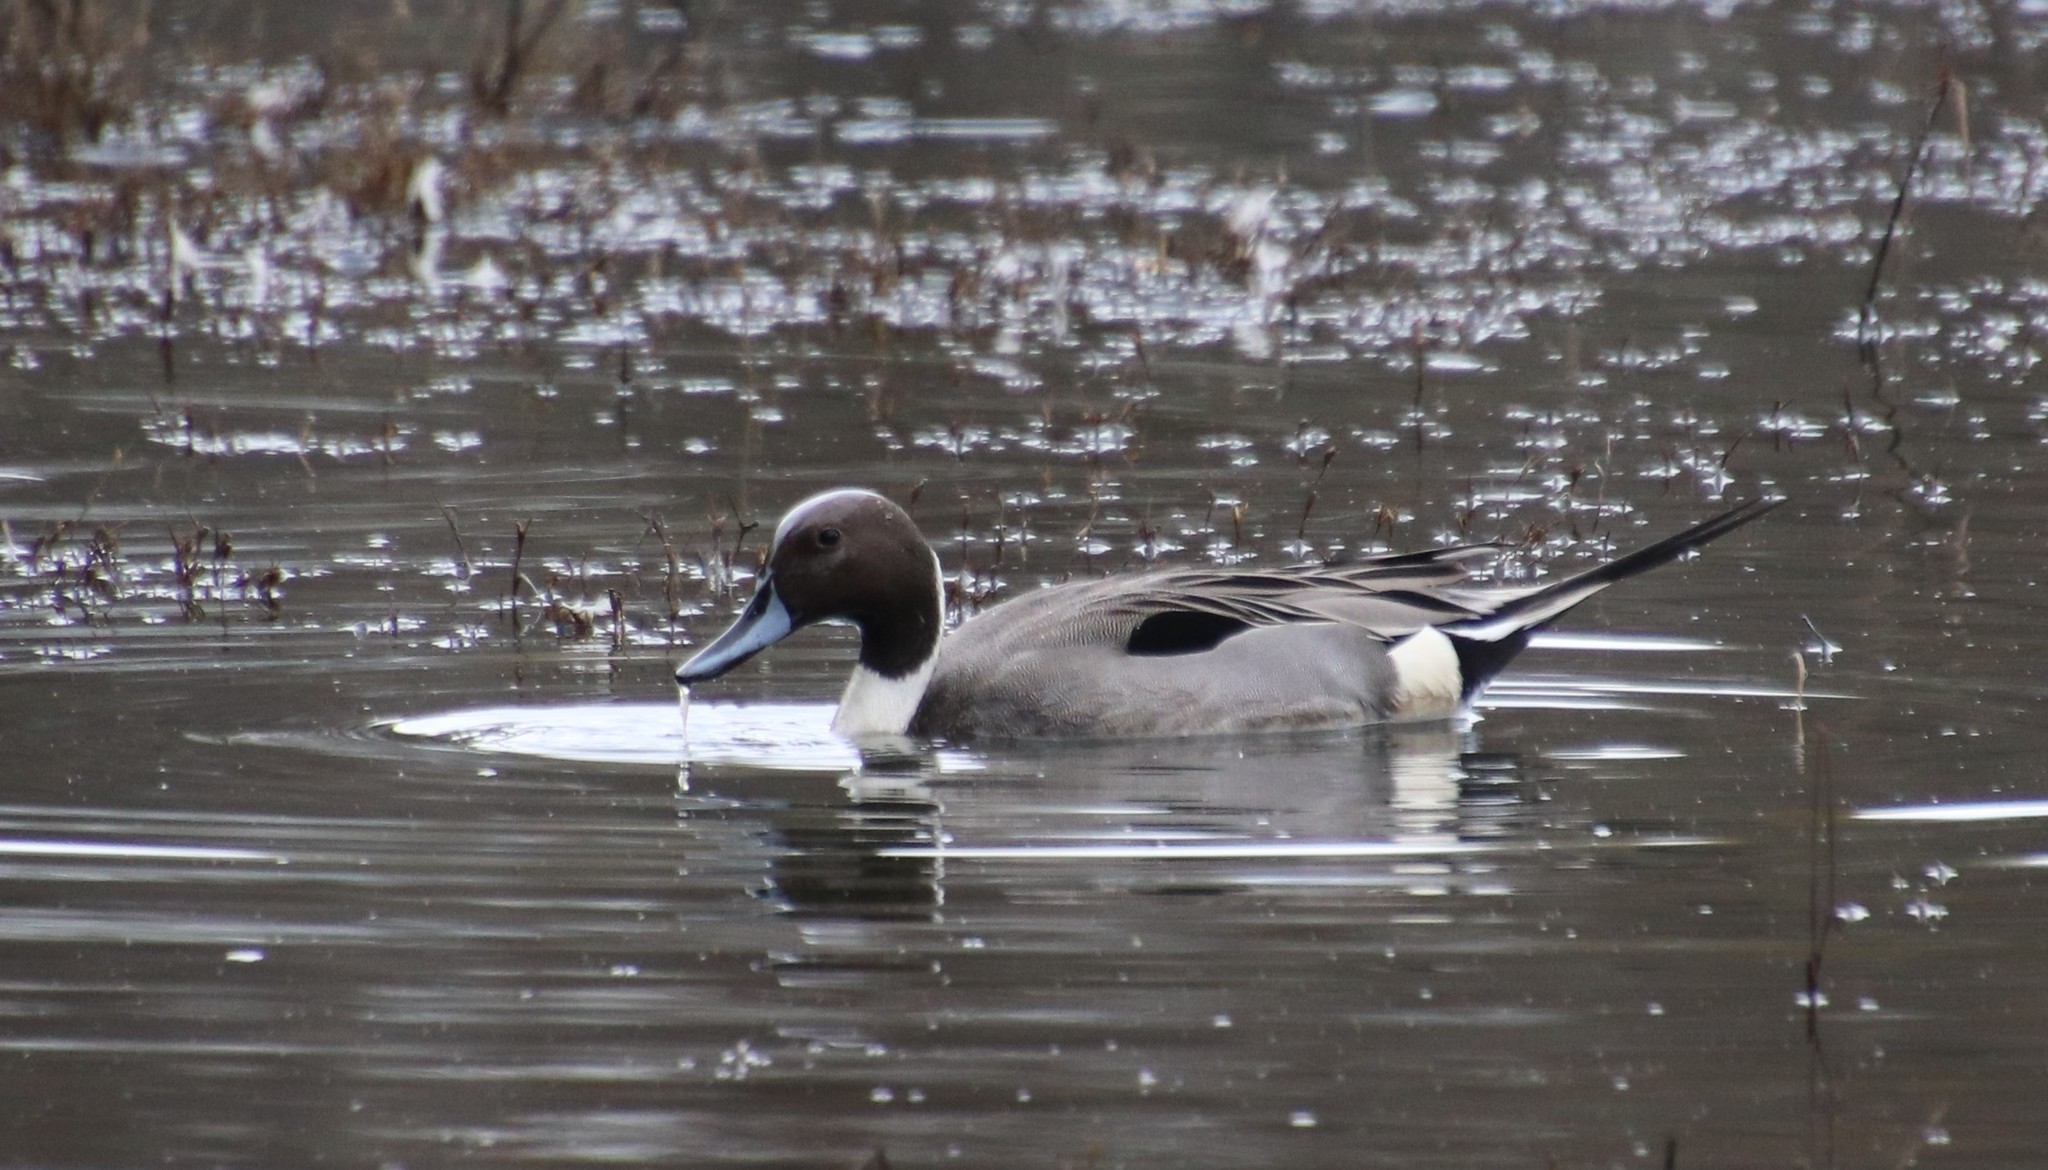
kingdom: Animalia
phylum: Chordata
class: Aves
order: Anseriformes
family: Anatidae
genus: Anas
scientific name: Anas acuta
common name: Northern pintail
